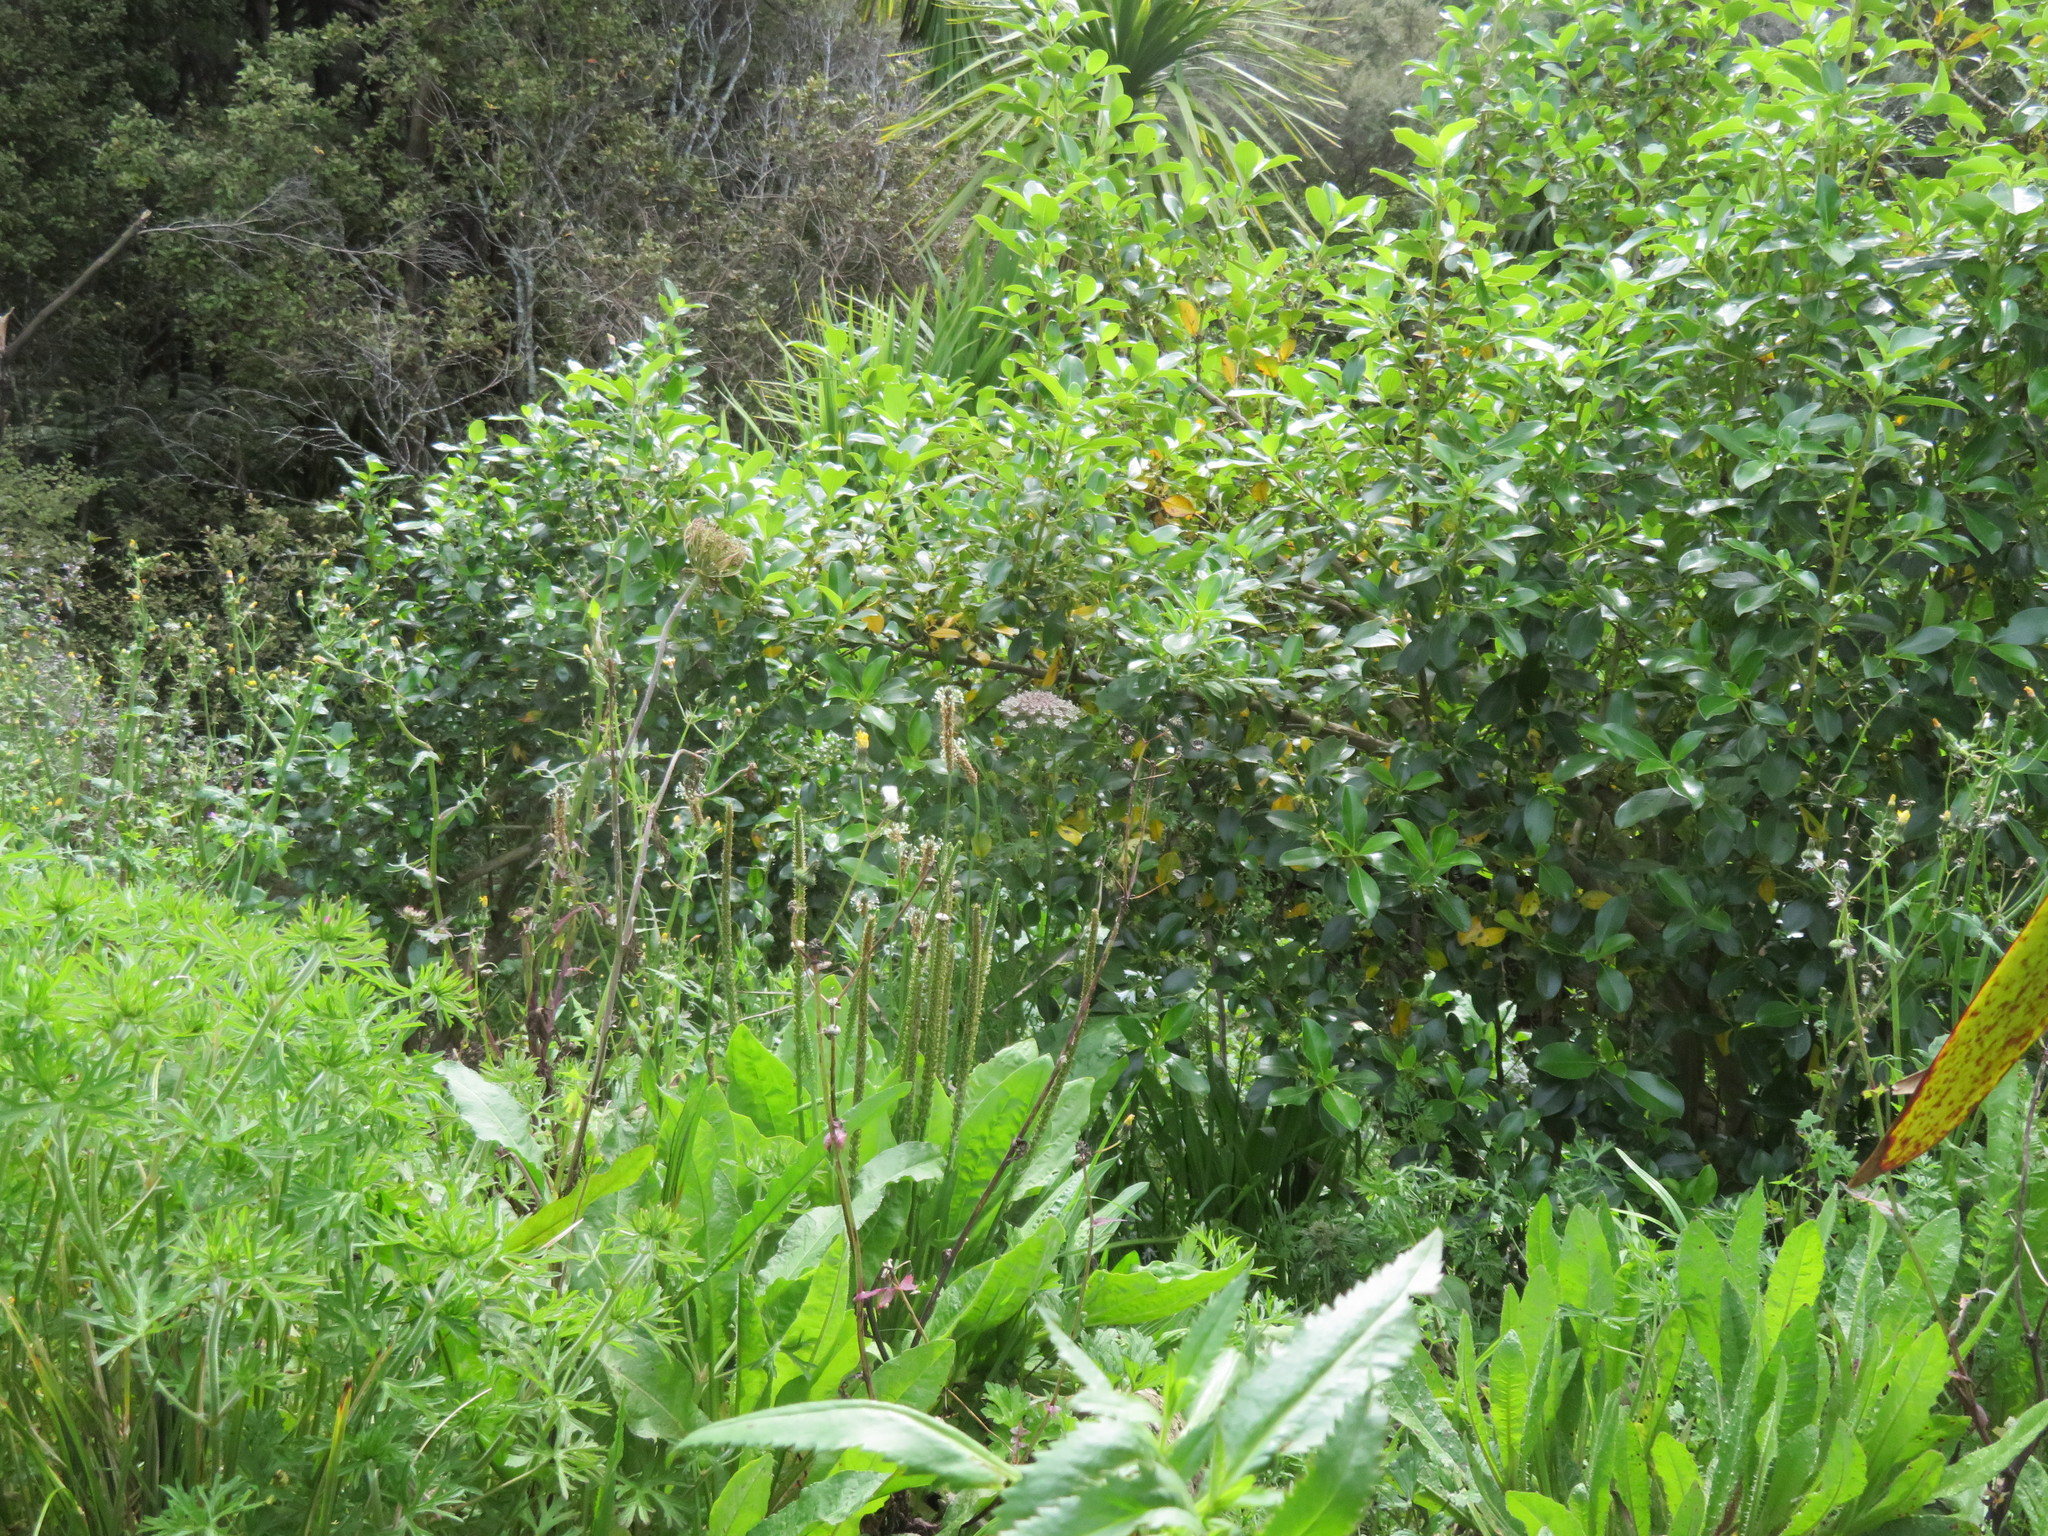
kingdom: Plantae
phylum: Tracheophyta
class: Magnoliopsida
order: Gentianales
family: Rubiaceae
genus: Coprosma
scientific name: Coprosma robusta
